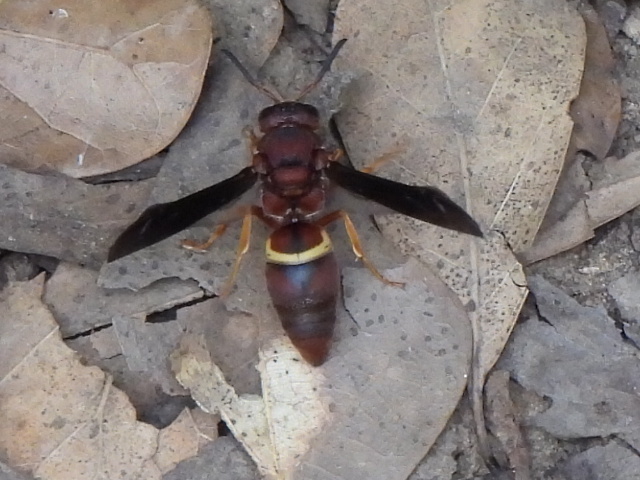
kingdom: Animalia
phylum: Arthropoda
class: Insecta
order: Hymenoptera
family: Eumenidae
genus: Euodynerus
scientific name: Euodynerus crypticus
